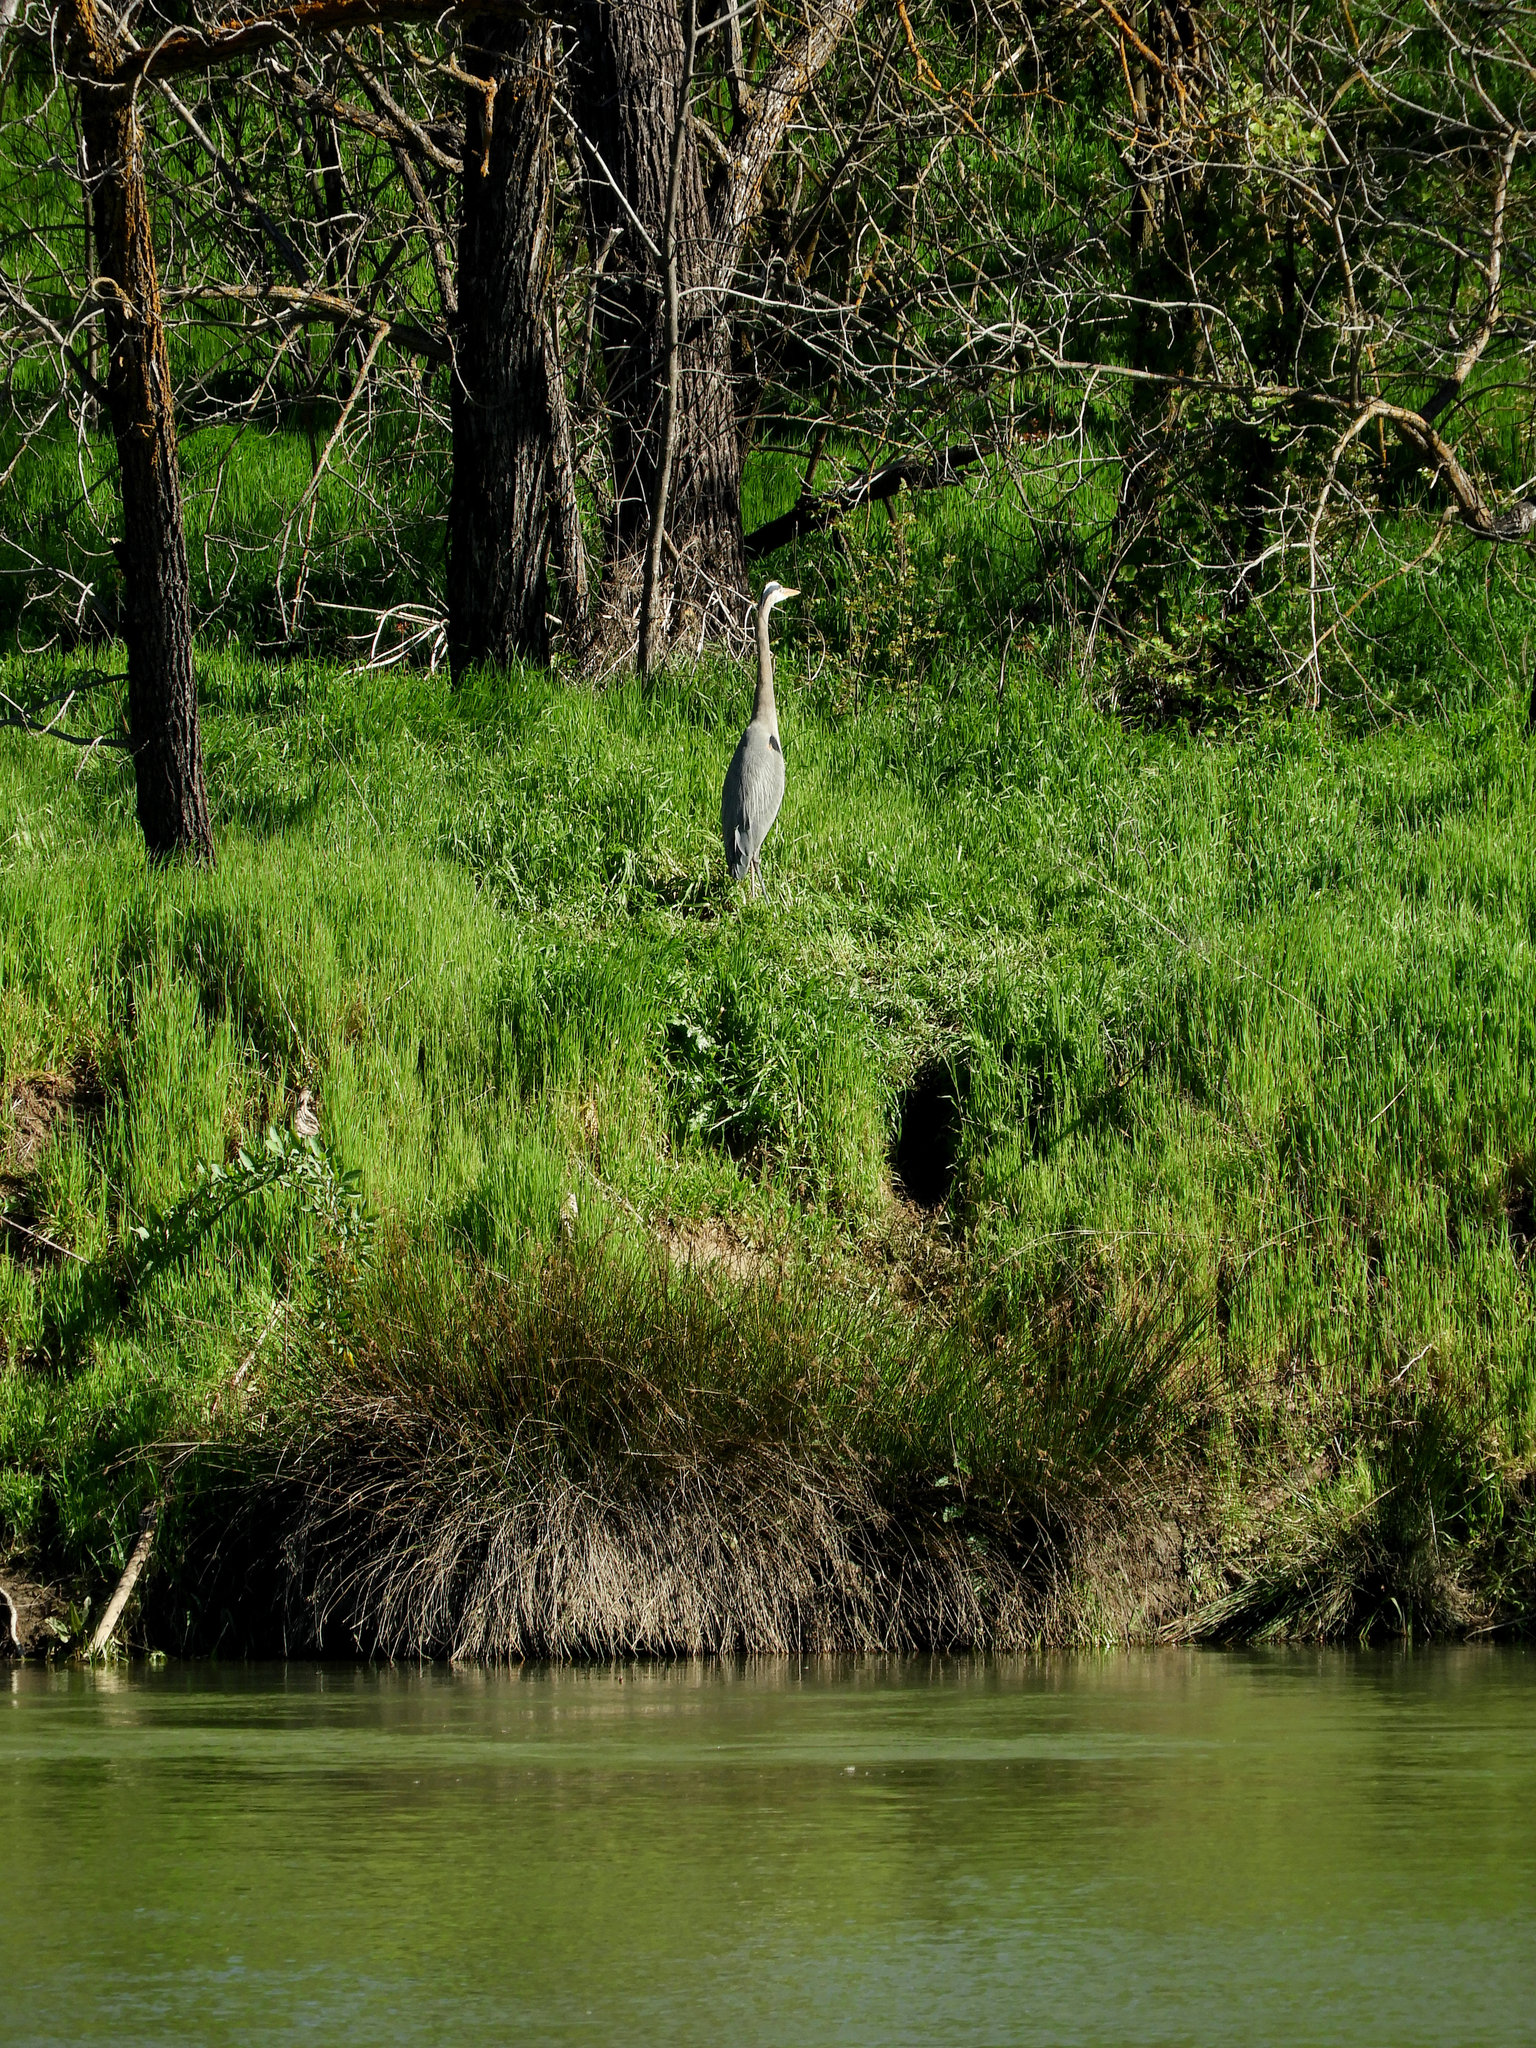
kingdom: Animalia
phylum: Chordata
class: Aves
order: Pelecaniformes
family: Ardeidae
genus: Ardea
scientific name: Ardea herodias
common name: Great blue heron
